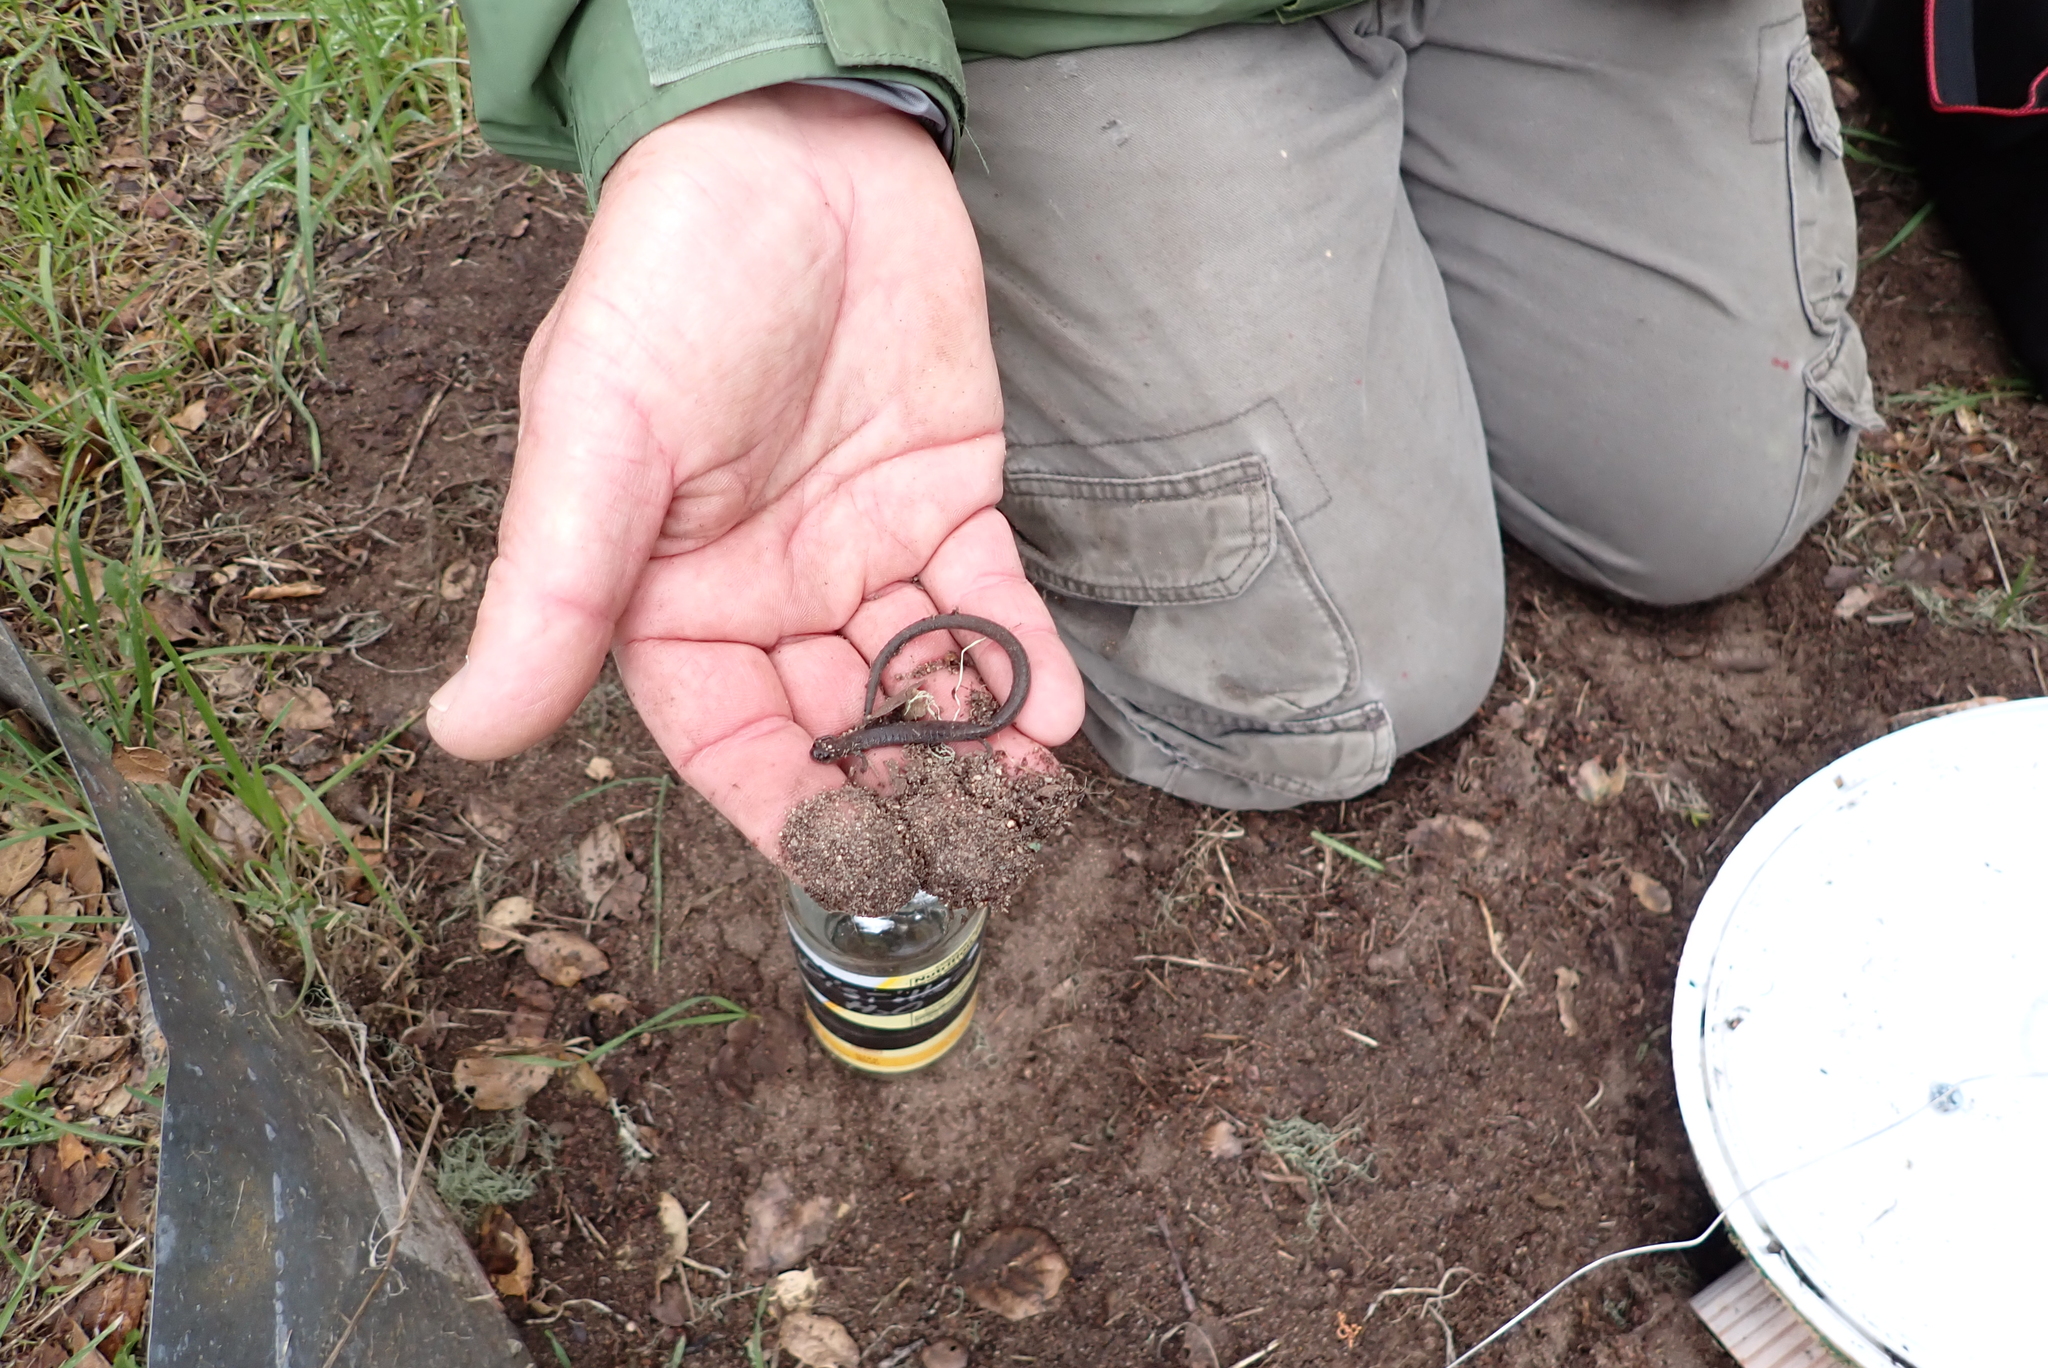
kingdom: Animalia
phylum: Chordata
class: Amphibia
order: Caudata
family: Plethodontidae
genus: Batrachoseps
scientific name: Batrachoseps gavilanensis
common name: Gabilan mountains slender salamander
